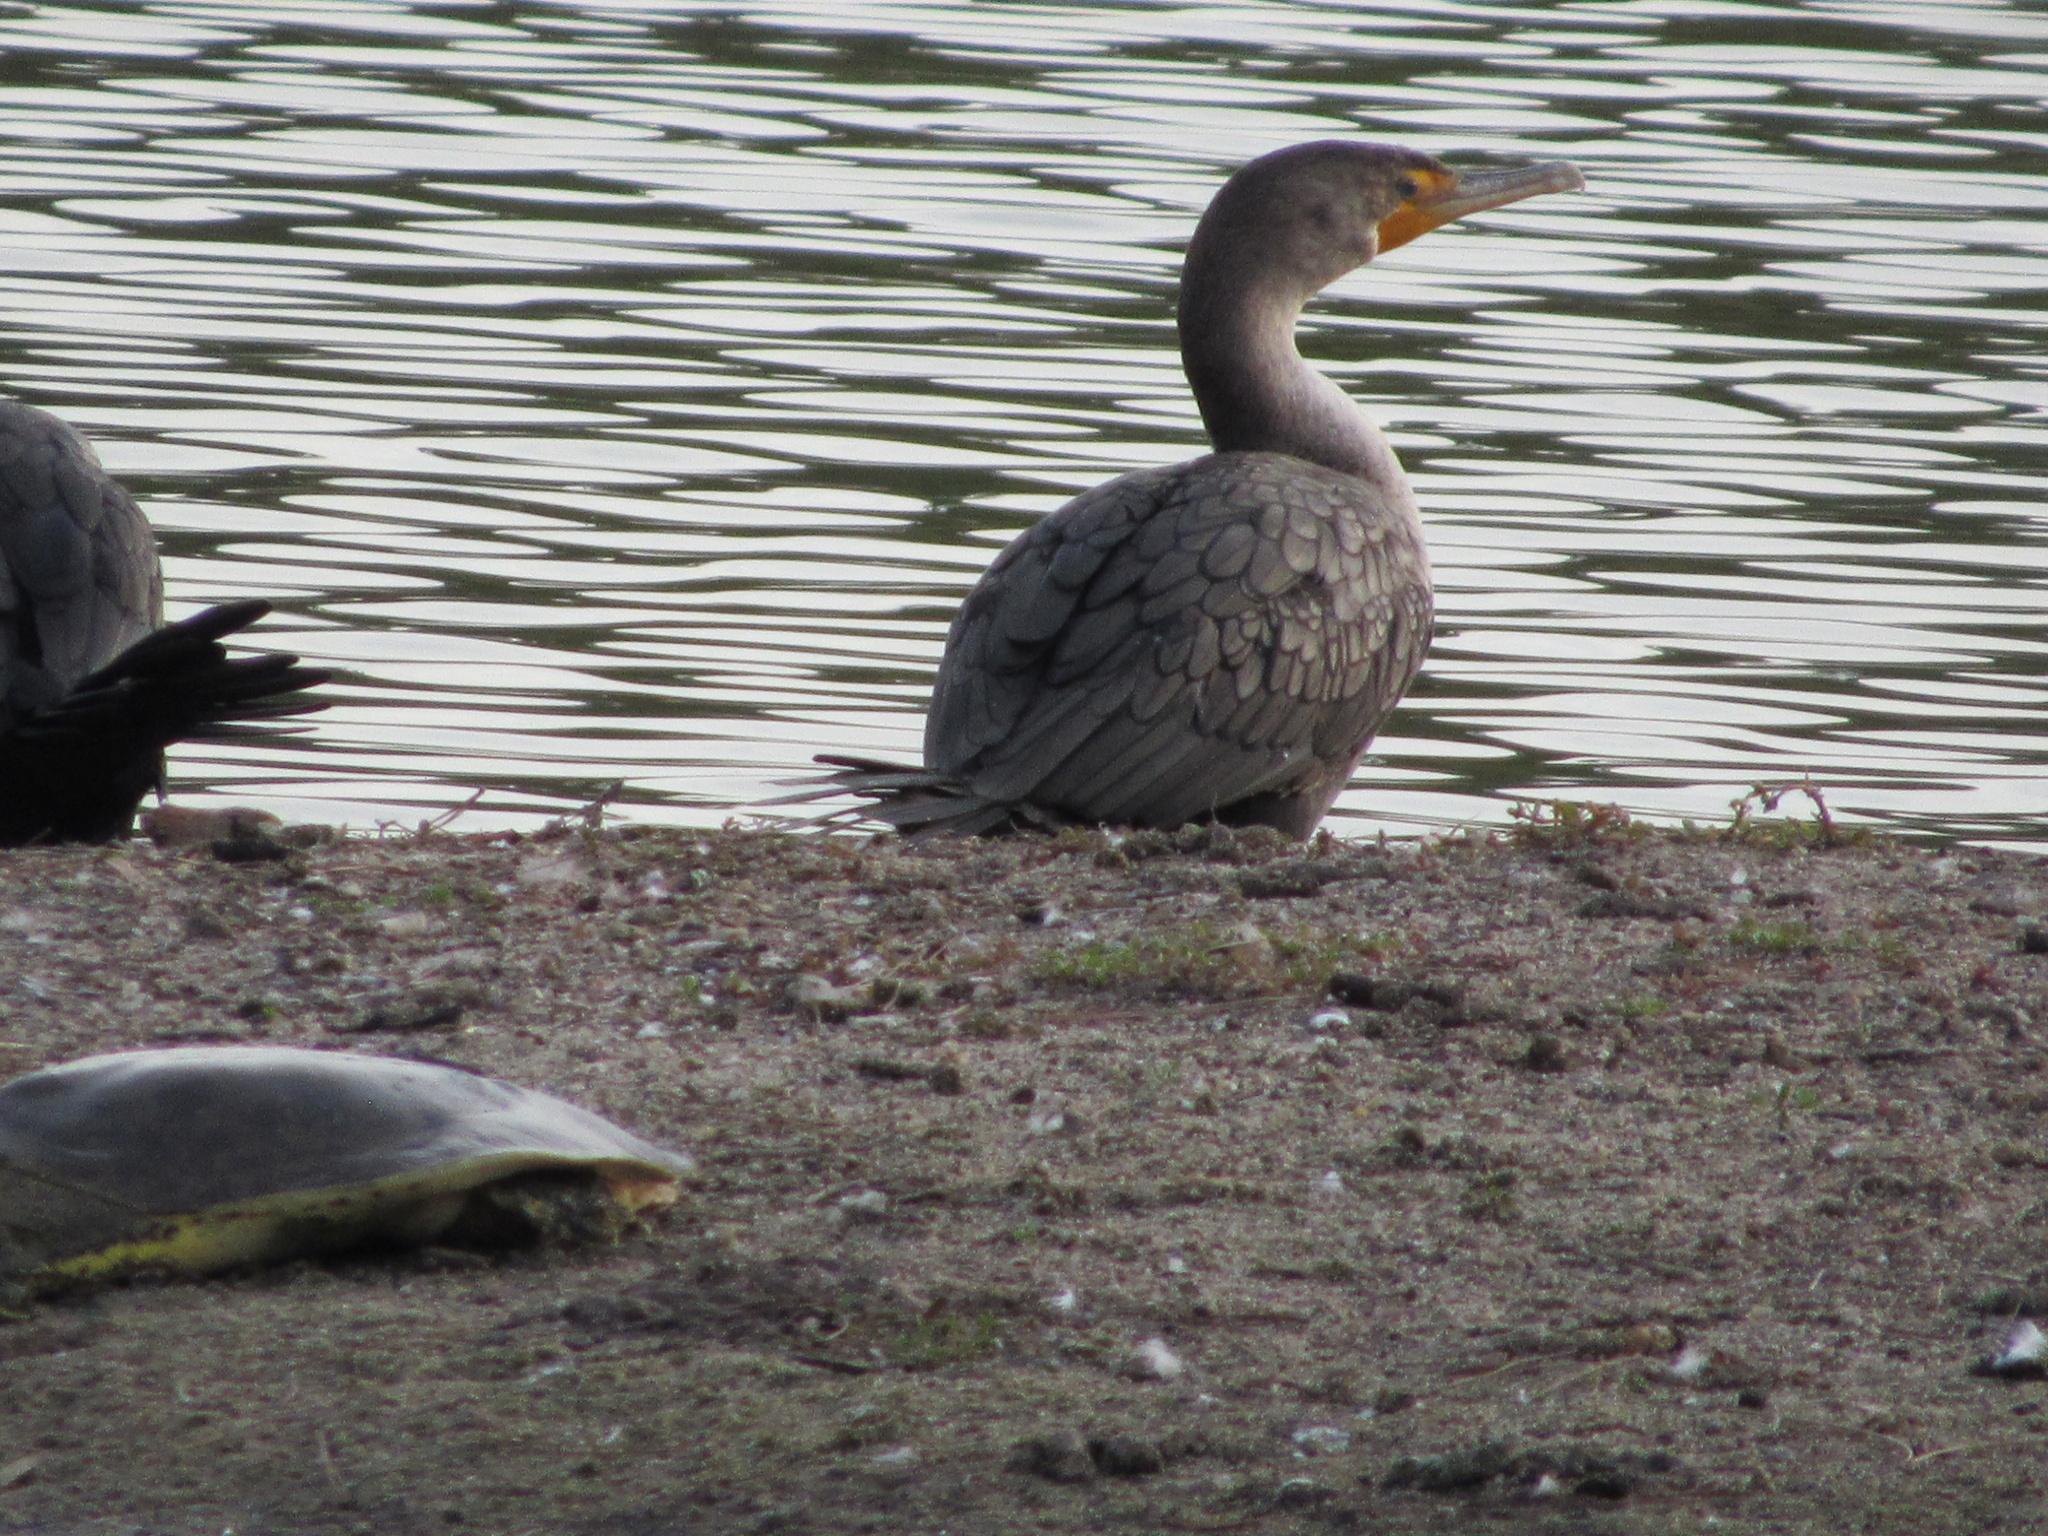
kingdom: Animalia
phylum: Chordata
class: Aves
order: Suliformes
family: Phalacrocoracidae
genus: Phalacrocorax
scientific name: Phalacrocorax auritus
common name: Double-crested cormorant
